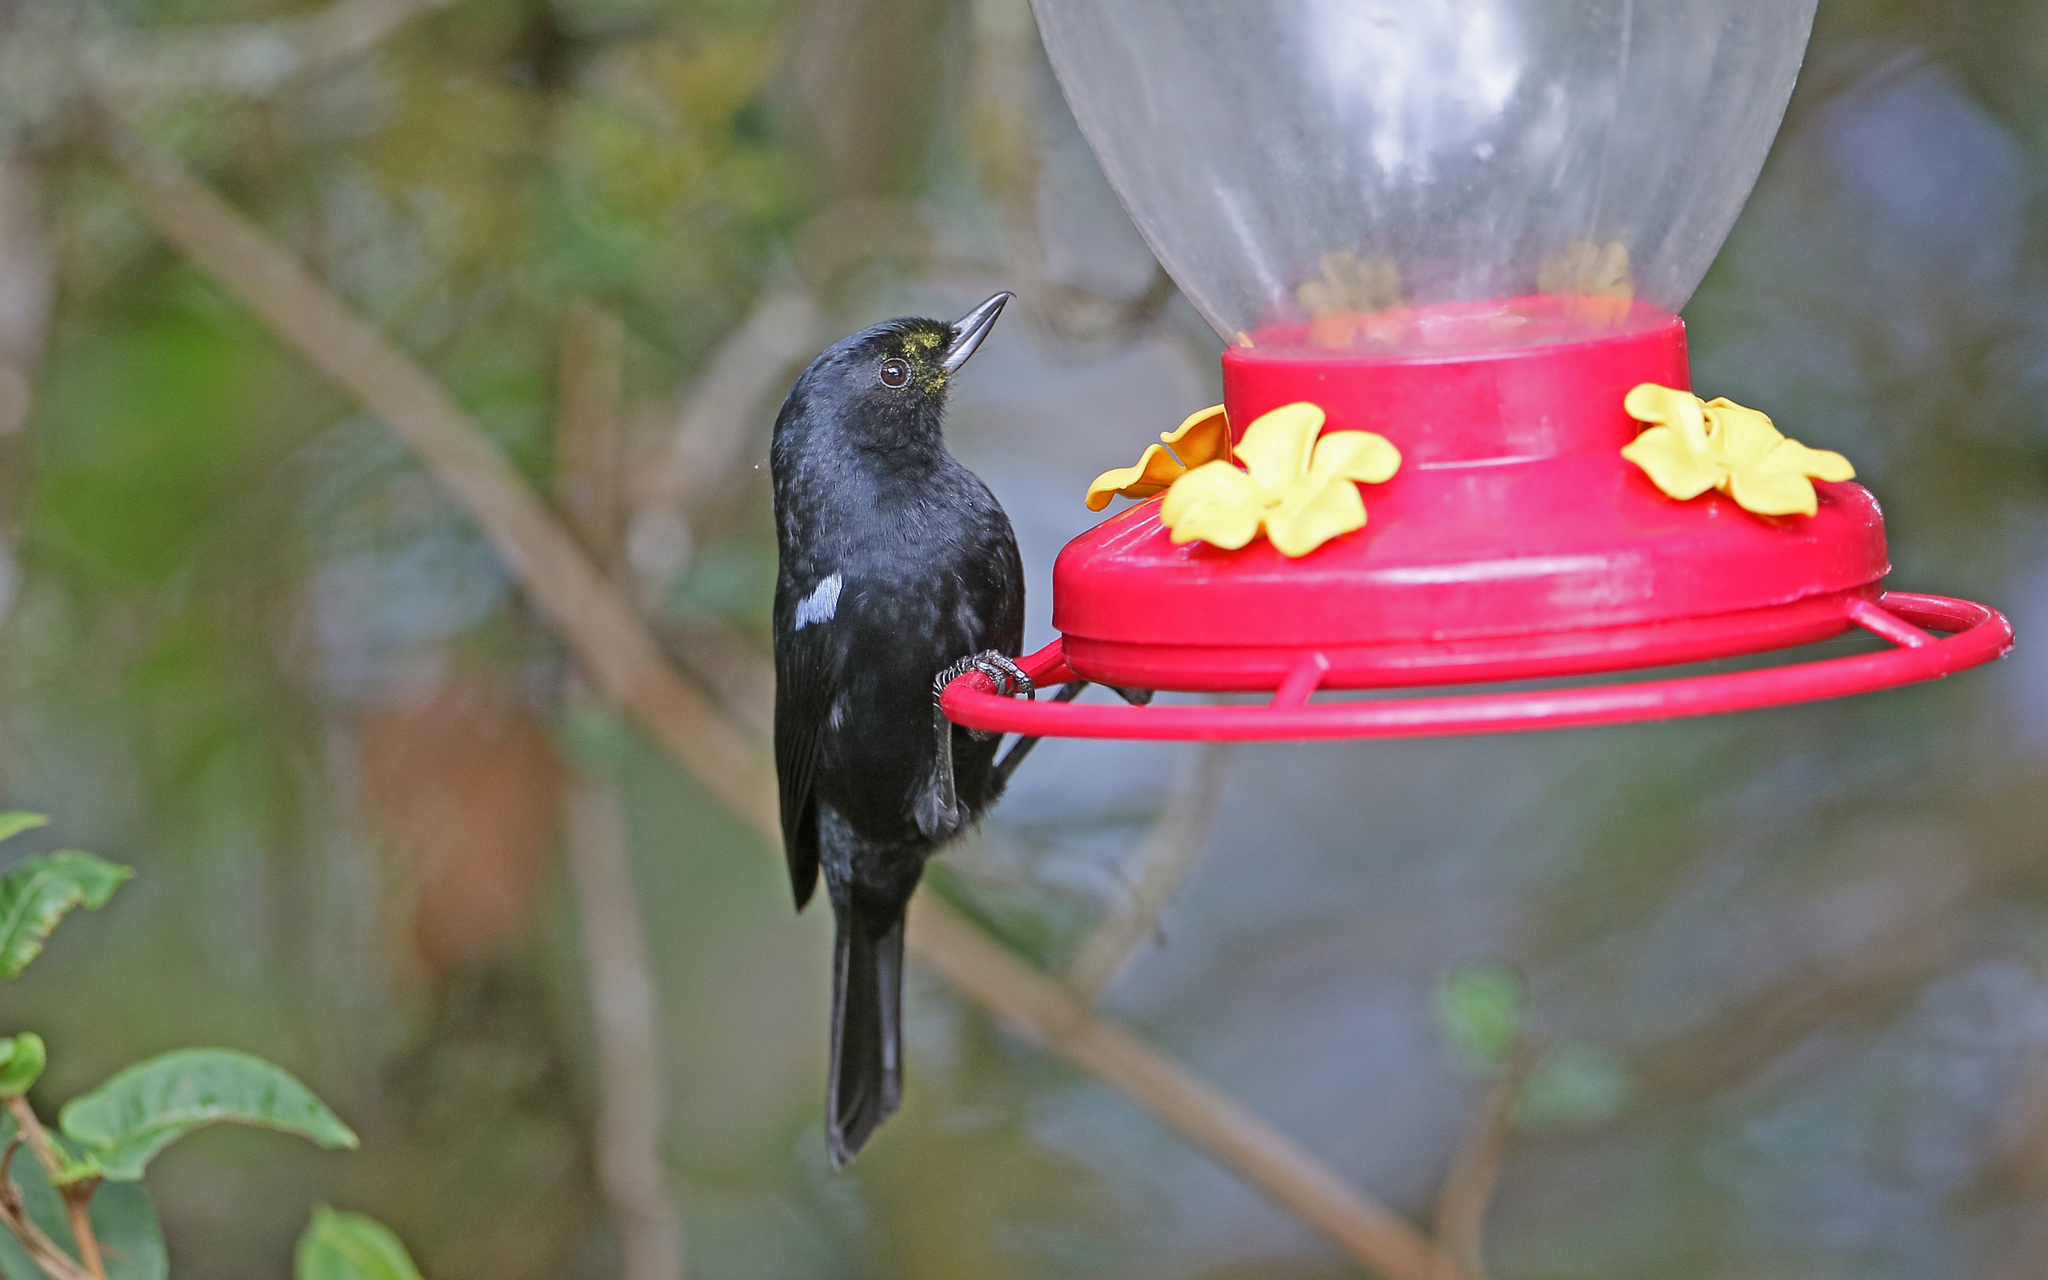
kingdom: Animalia
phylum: Chordata
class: Aves
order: Passeriformes
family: Thraupidae
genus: Diglossa
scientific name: Diglossa lafresnayii
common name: Glossy flowerpiercer
